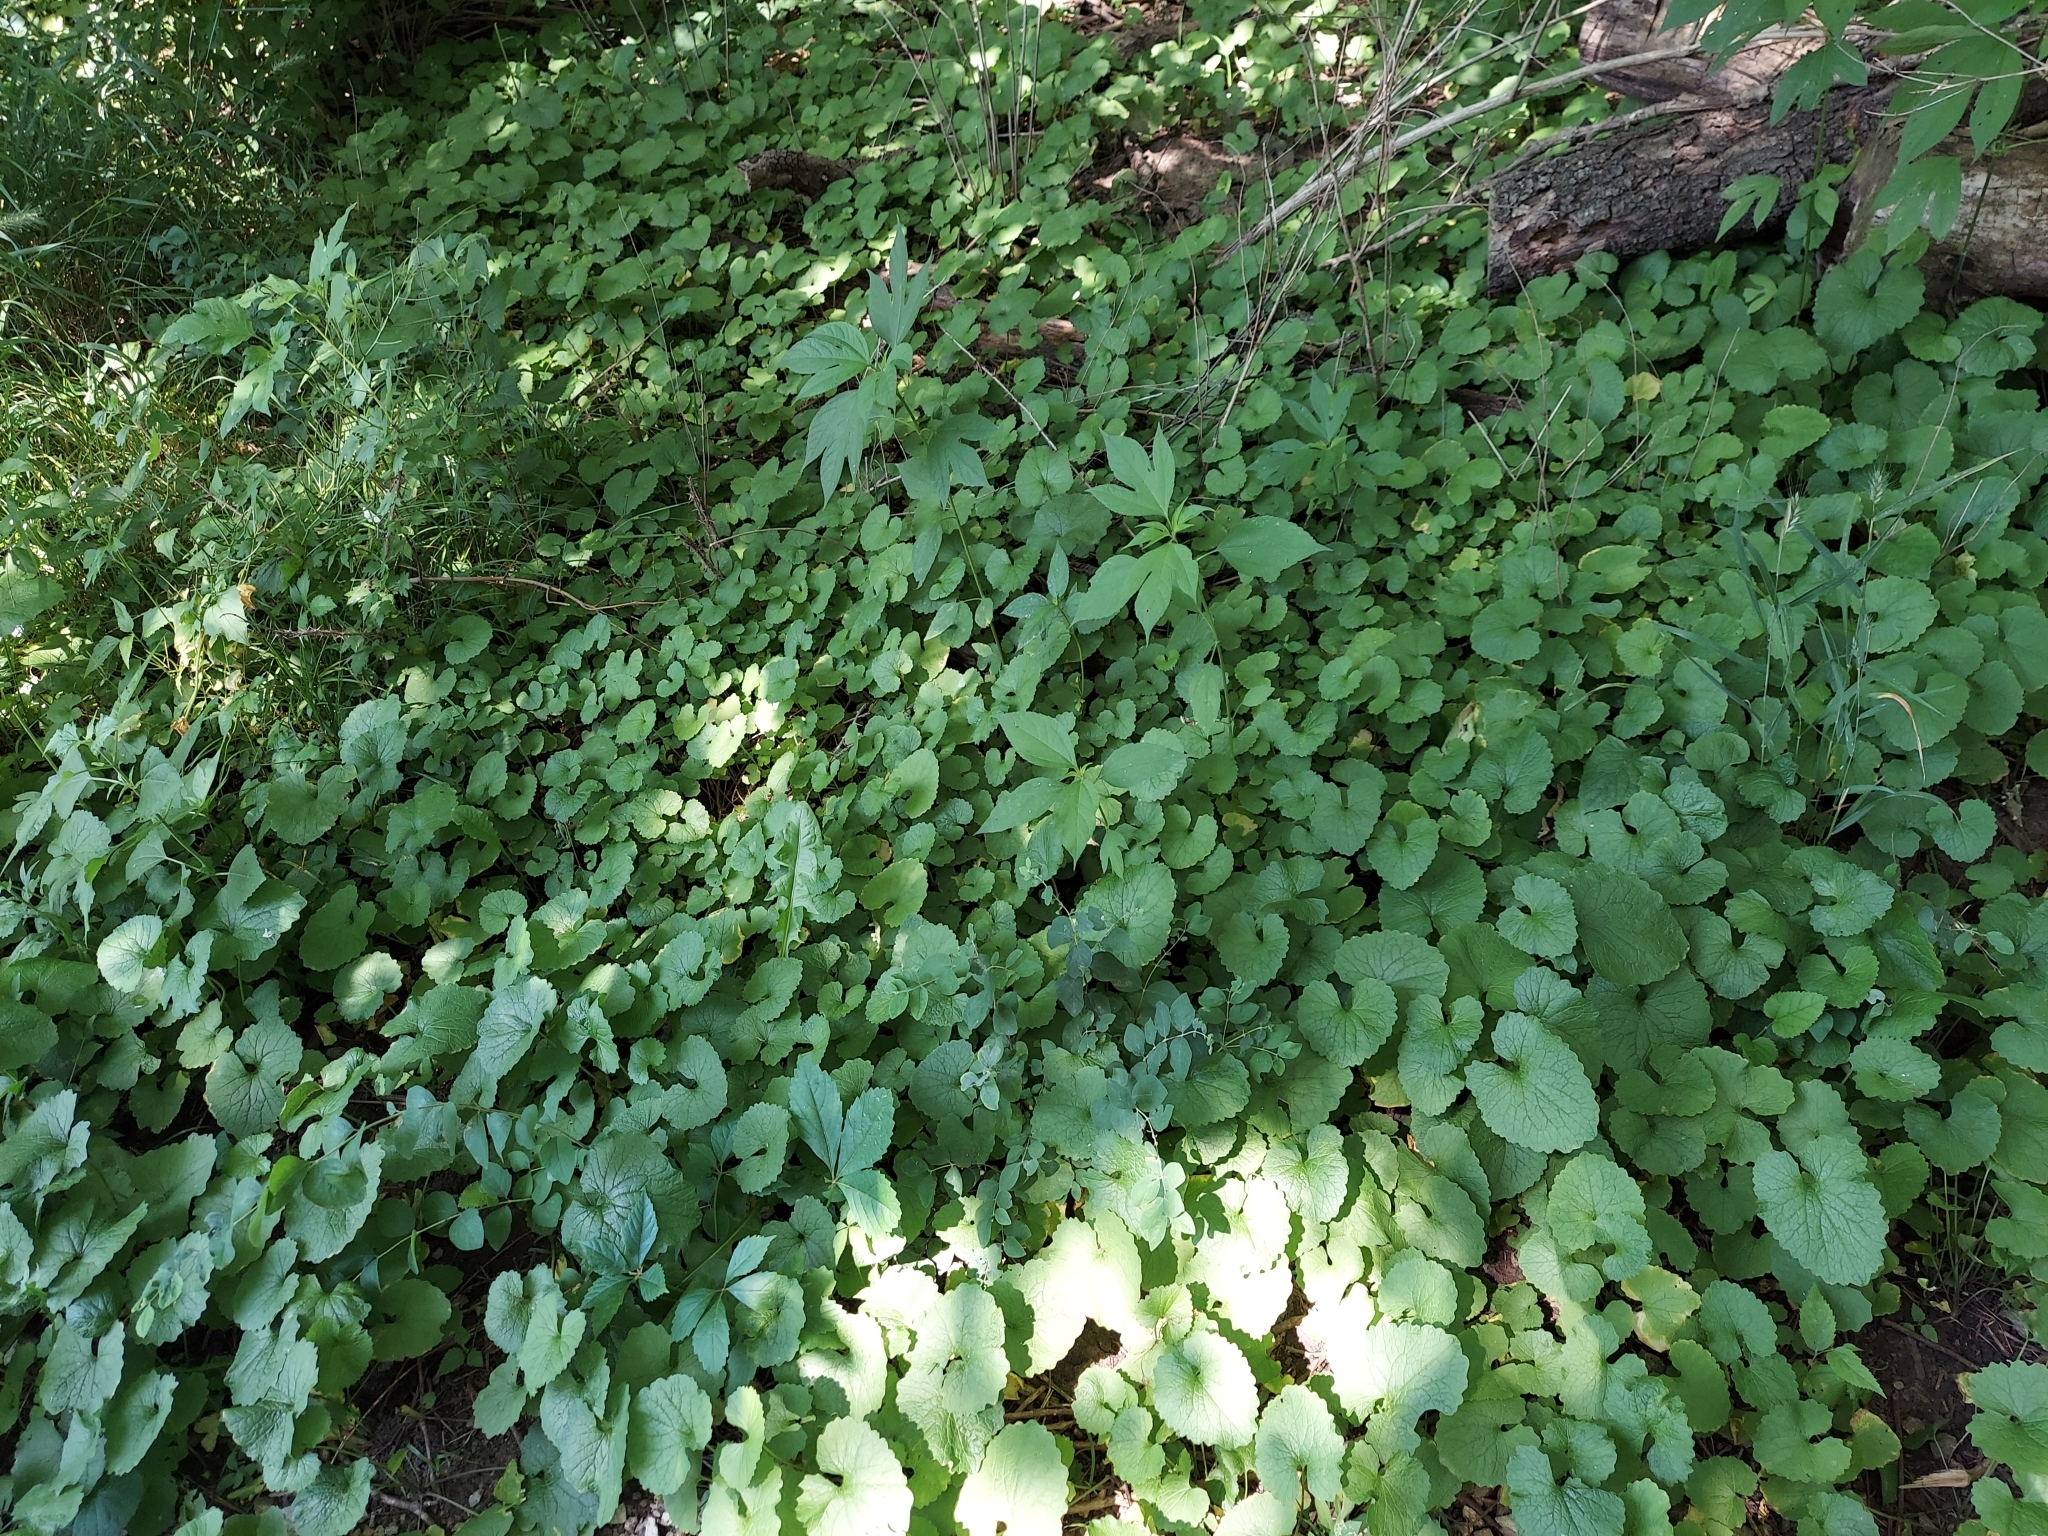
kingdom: Plantae
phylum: Tracheophyta
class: Magnoliopsida
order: Brassicales
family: Brassicaceae
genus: Alliaria
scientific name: Alliaria petiolata
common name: Garlic mustard
